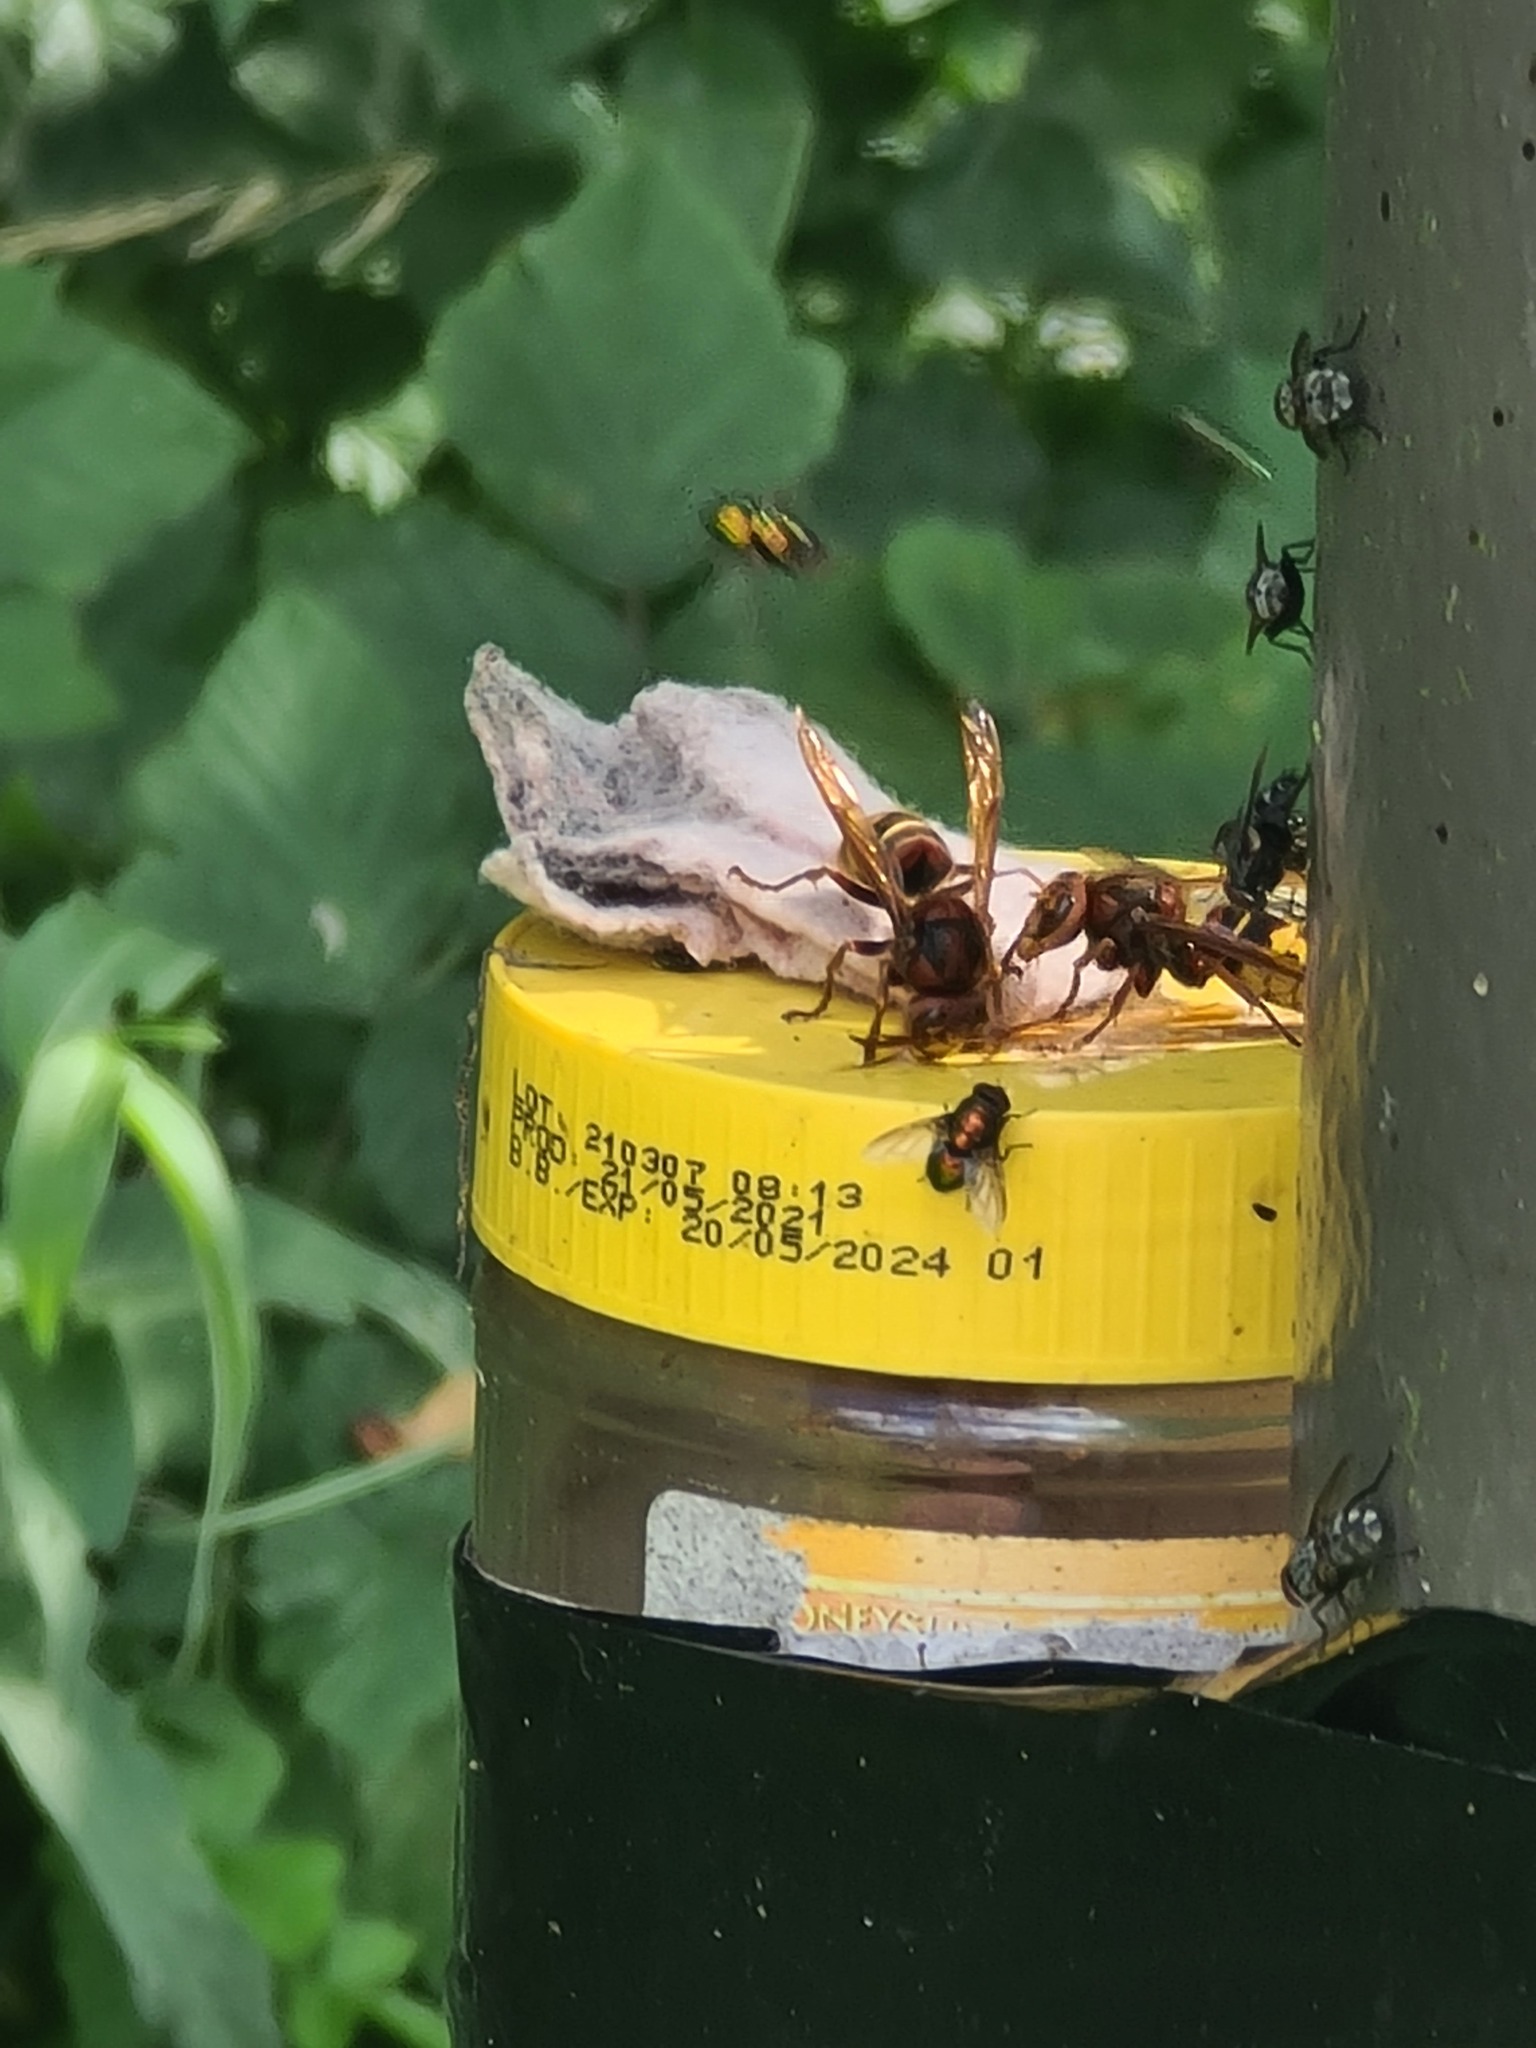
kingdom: Animalia
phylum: Arthropoda
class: Insecta
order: Hymenoptera
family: Vespidae
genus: Vespa
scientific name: Vespa crabro
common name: Hornet
